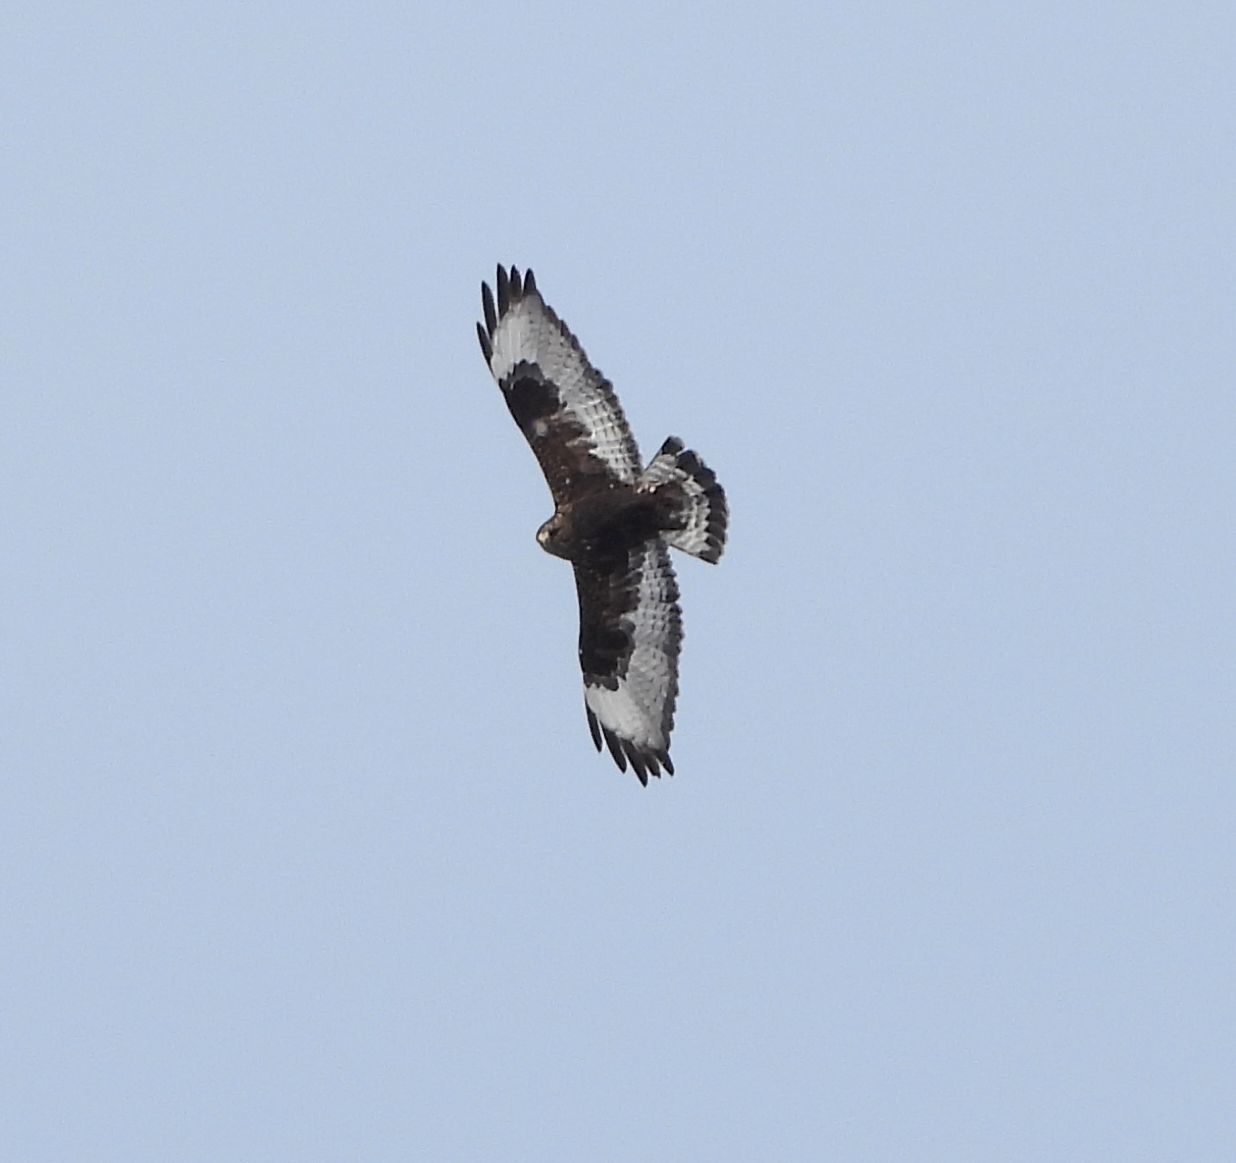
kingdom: Animalia
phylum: Chordata
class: Aves
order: Accipitriformes
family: Accipitridae
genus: Buteo
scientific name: Buteo lagopus
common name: Rough-legged buzzard
